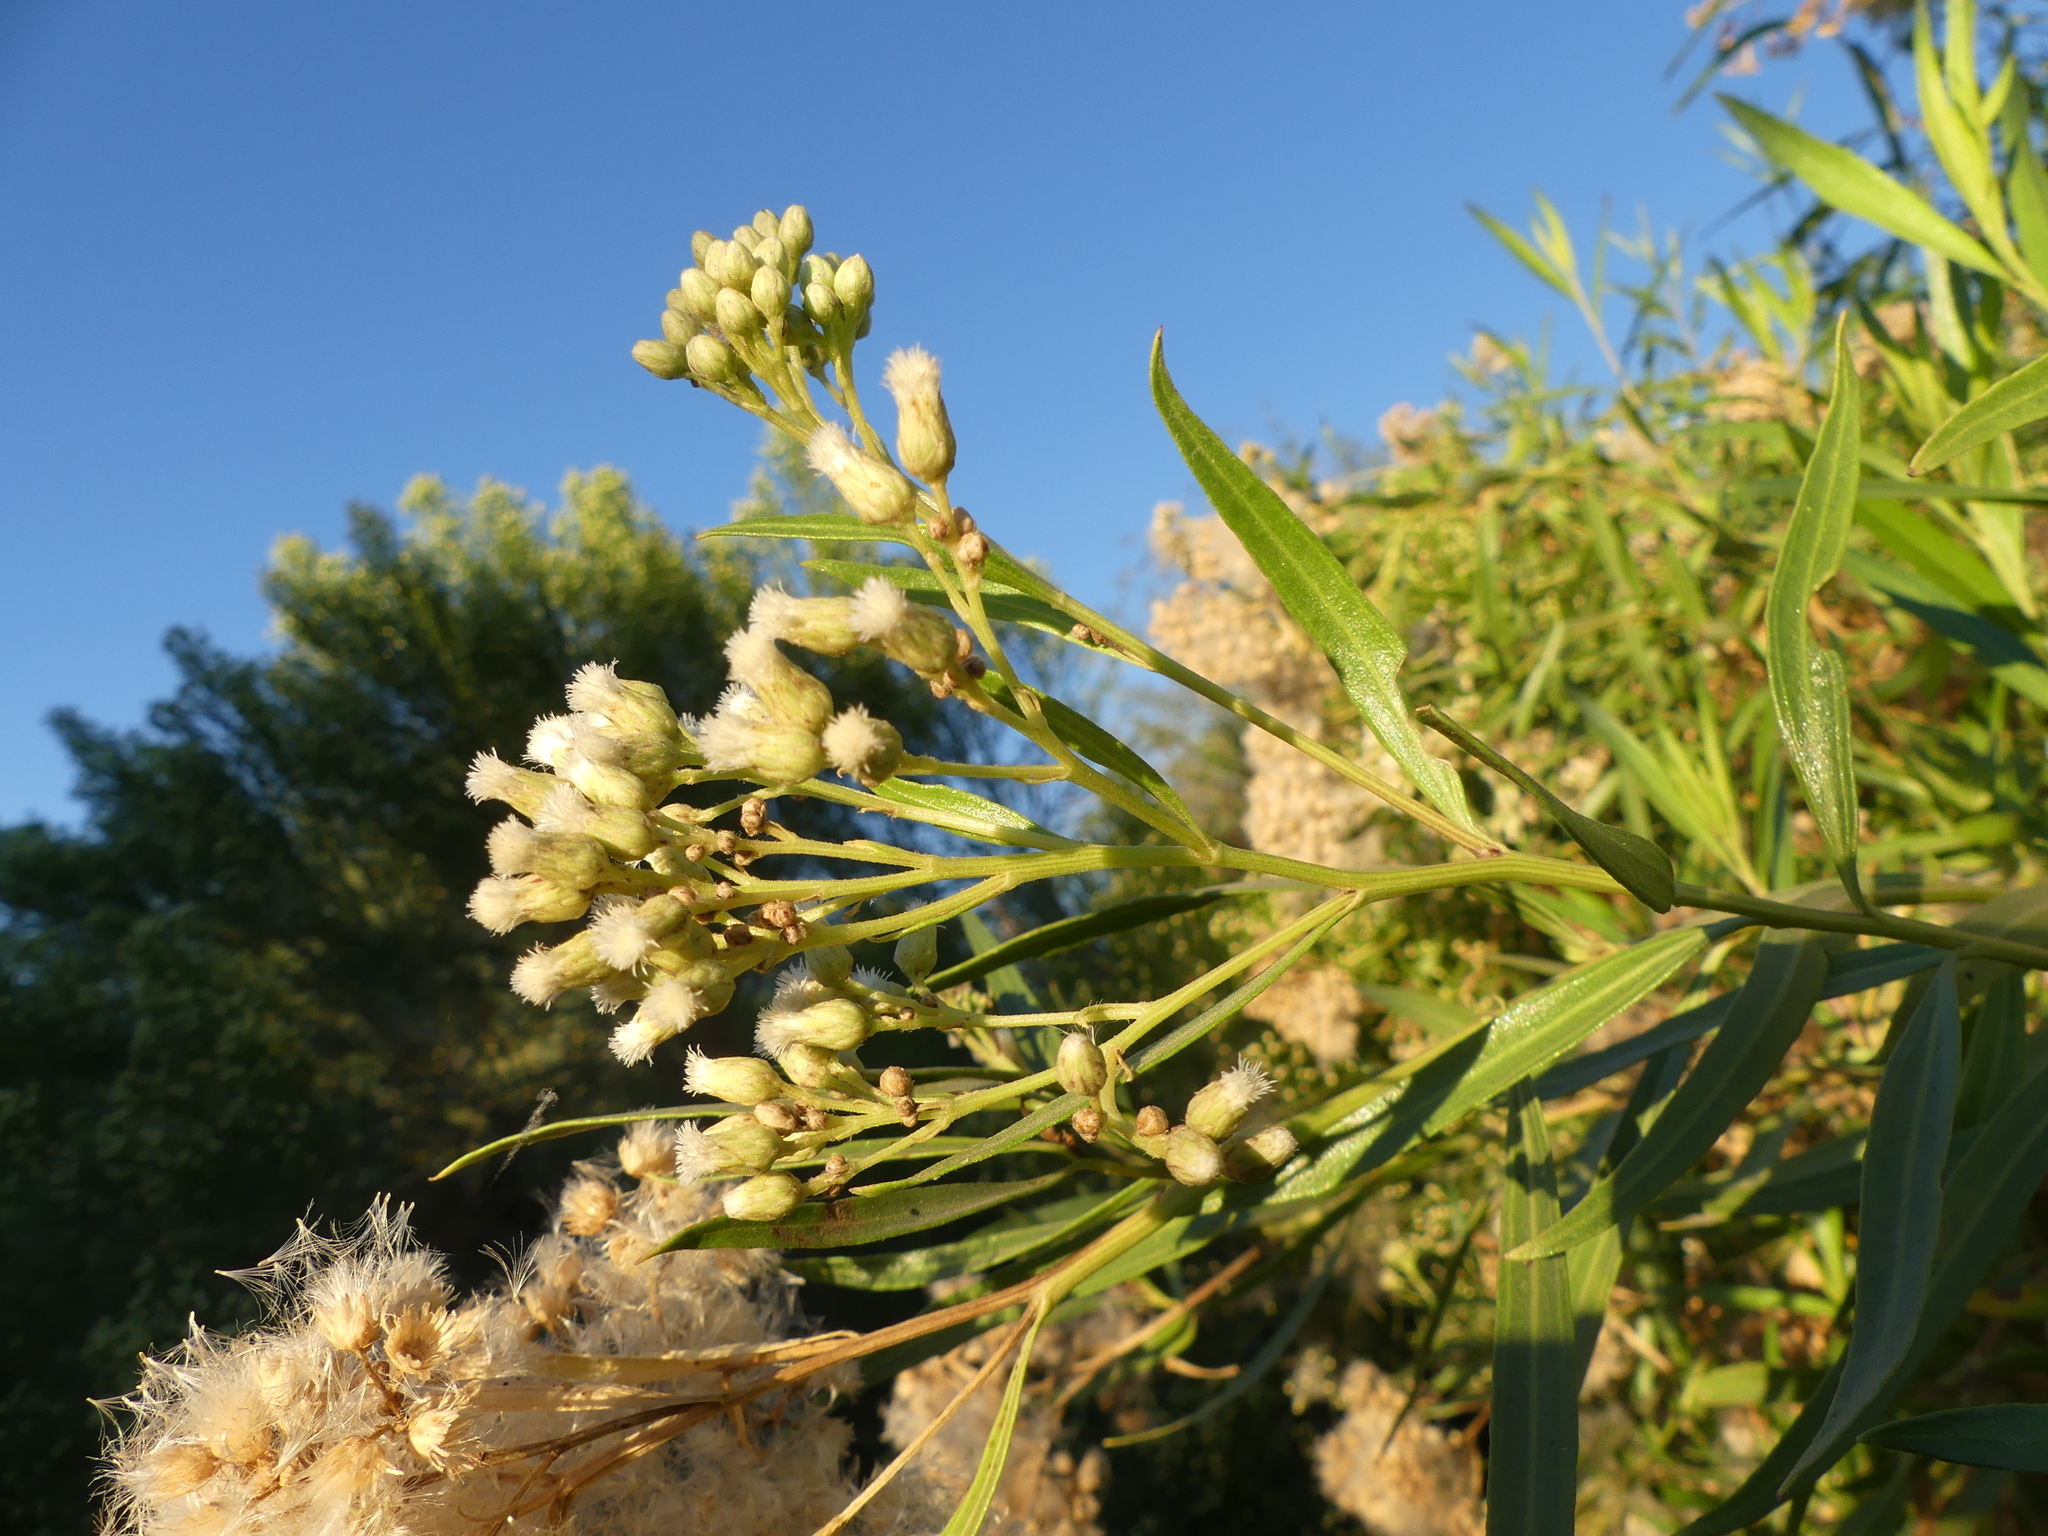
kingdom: Plantae
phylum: Tracheophyta
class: Magnoliopsida
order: Asterales
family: Asteraceae
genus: Baccharis
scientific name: Baccharis salicifolia
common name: Sticky baccharis
